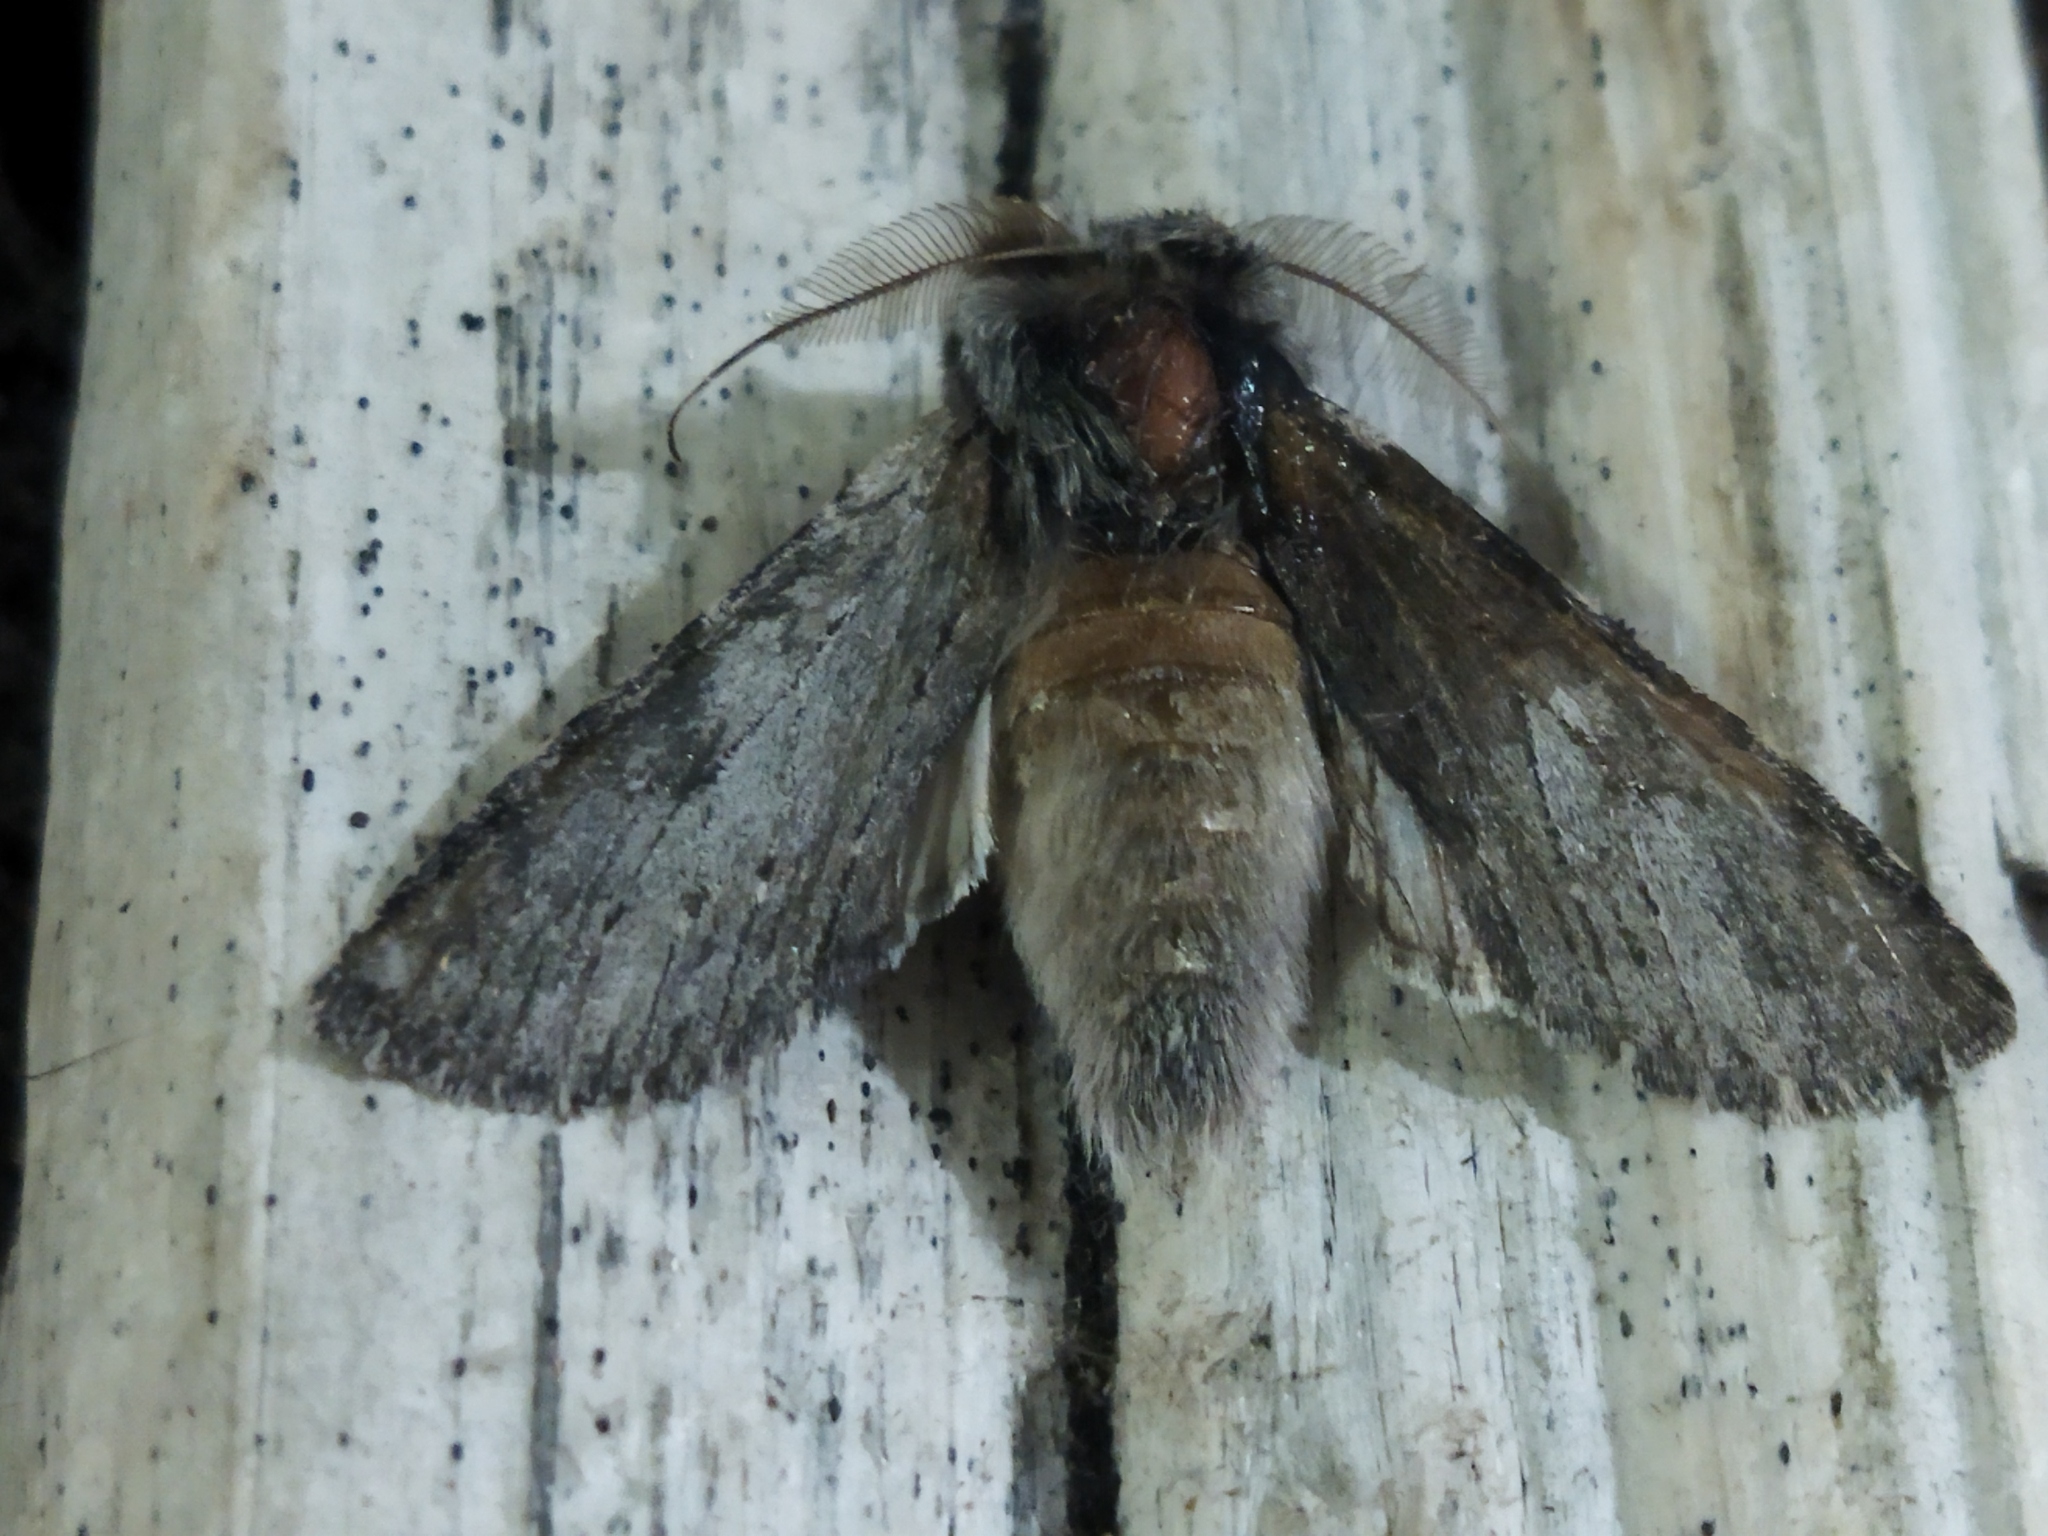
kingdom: Animalia
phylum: Arthropoda
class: Insecta
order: Lepidoptera
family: Notodontidae
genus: Dicranura
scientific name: Dicranura ulmi
